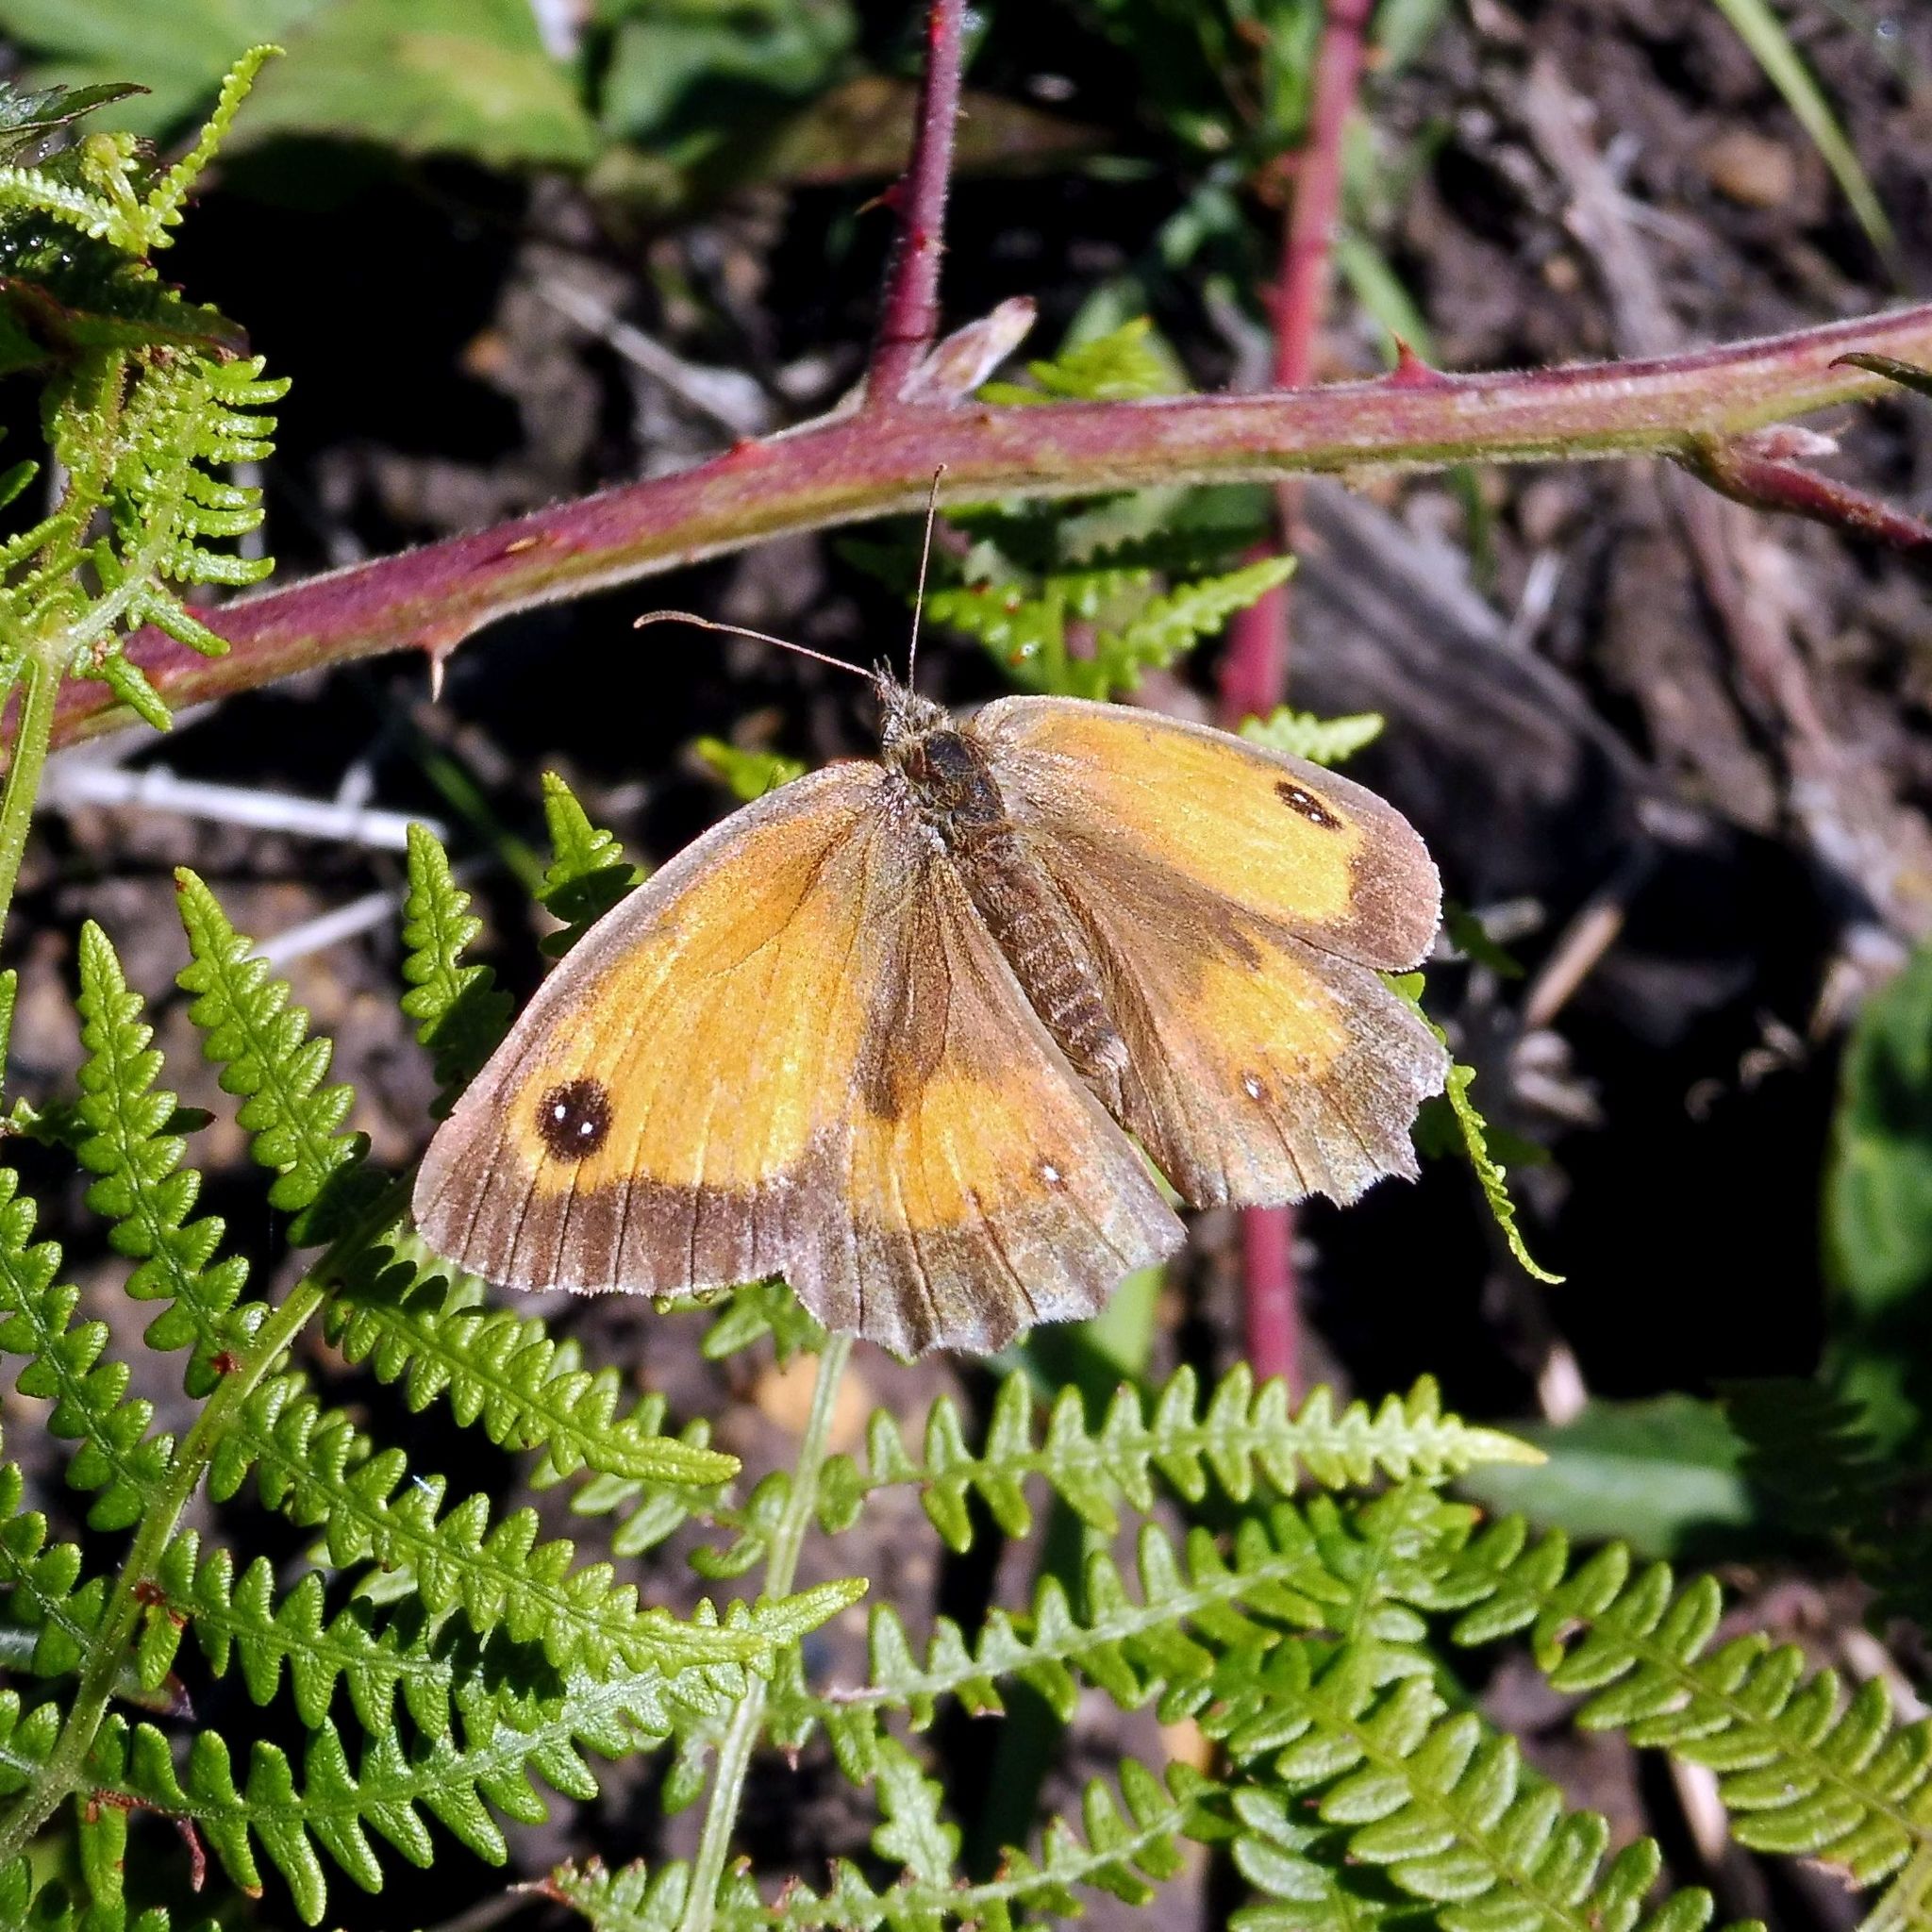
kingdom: Animalia
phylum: Arthropoda
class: Insecta
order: Lepidoptera
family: Nymphalidae
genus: Pyronia
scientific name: Pyronia tithonus
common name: Gatekeeper
